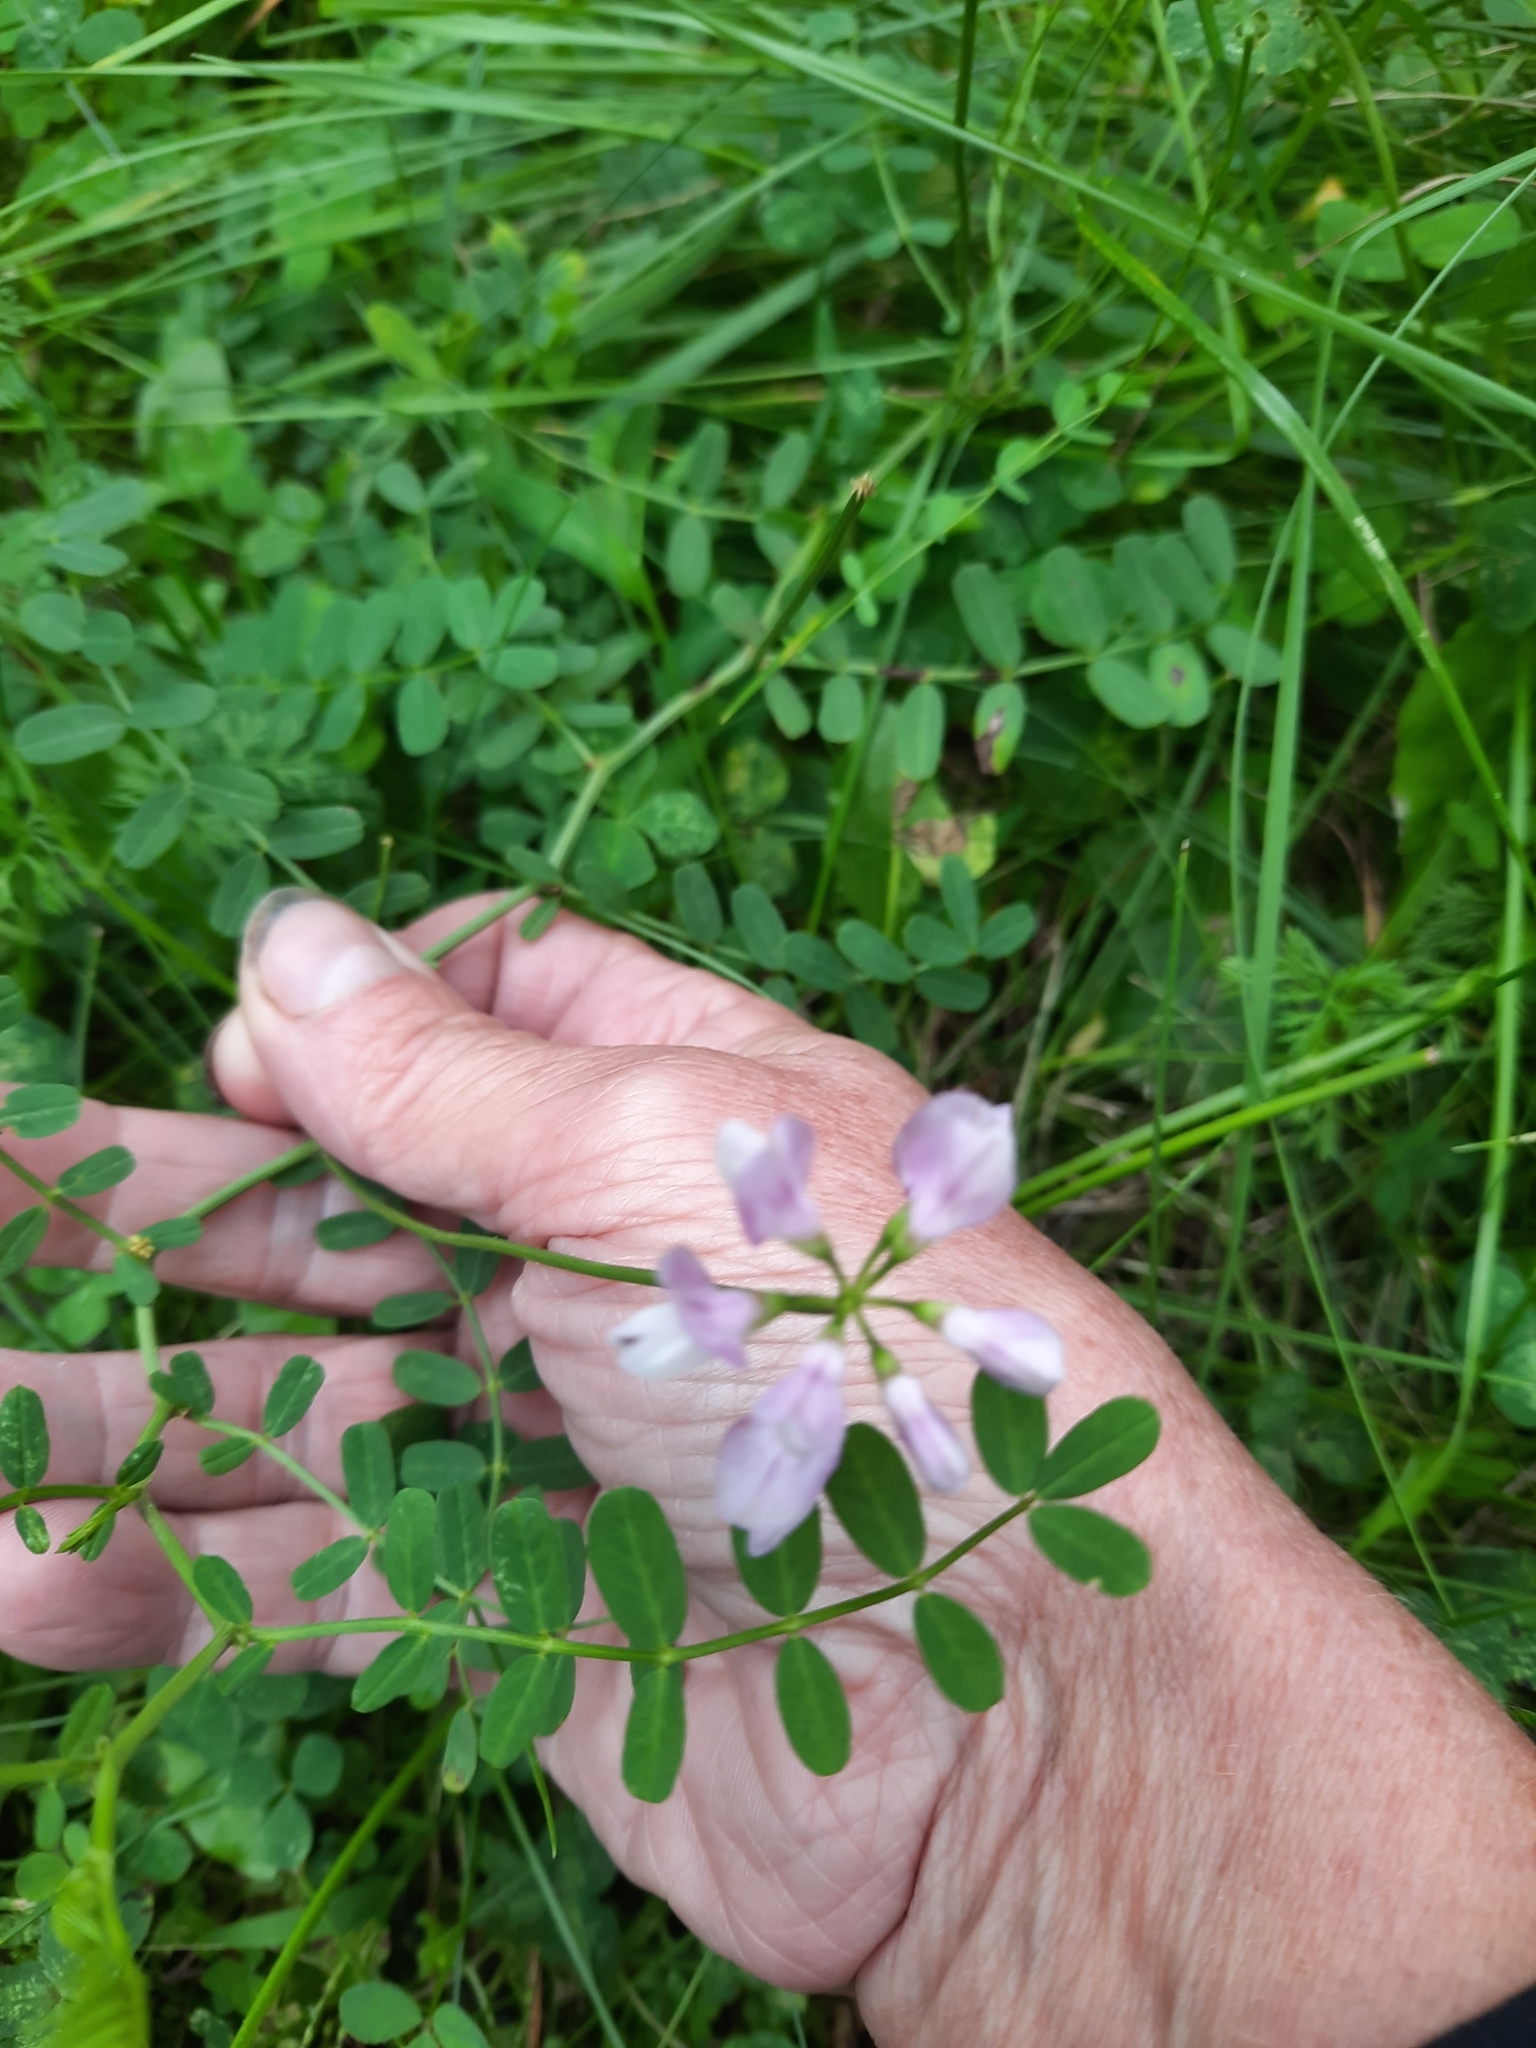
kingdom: Plantae
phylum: Tracheophyta
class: Magnoliopsida
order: Fabales
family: Fabaceae
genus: Coronilla
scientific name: Coronilla varia
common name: Crownvetch
